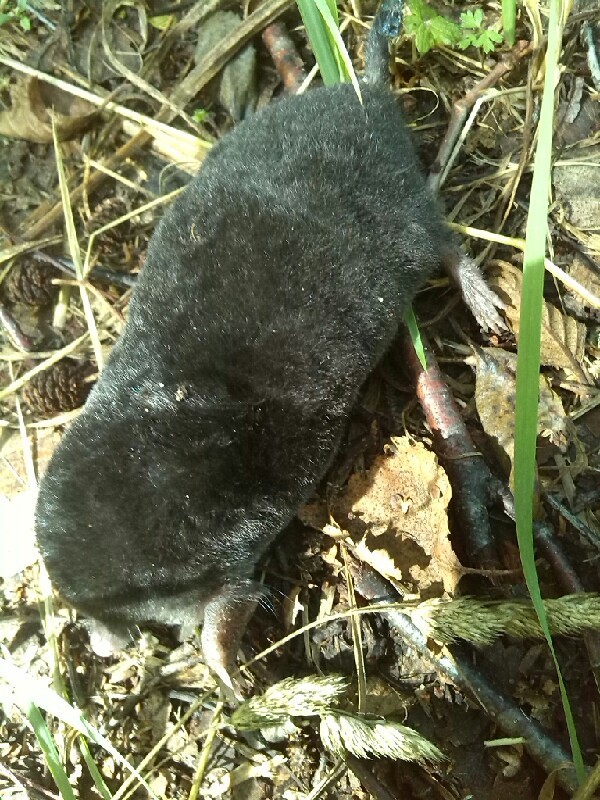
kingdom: Animalia
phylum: Chordata
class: Mammalia
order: Soricomorpha
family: Talpidae
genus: Talpa
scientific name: Talpa europaea
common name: European mole
